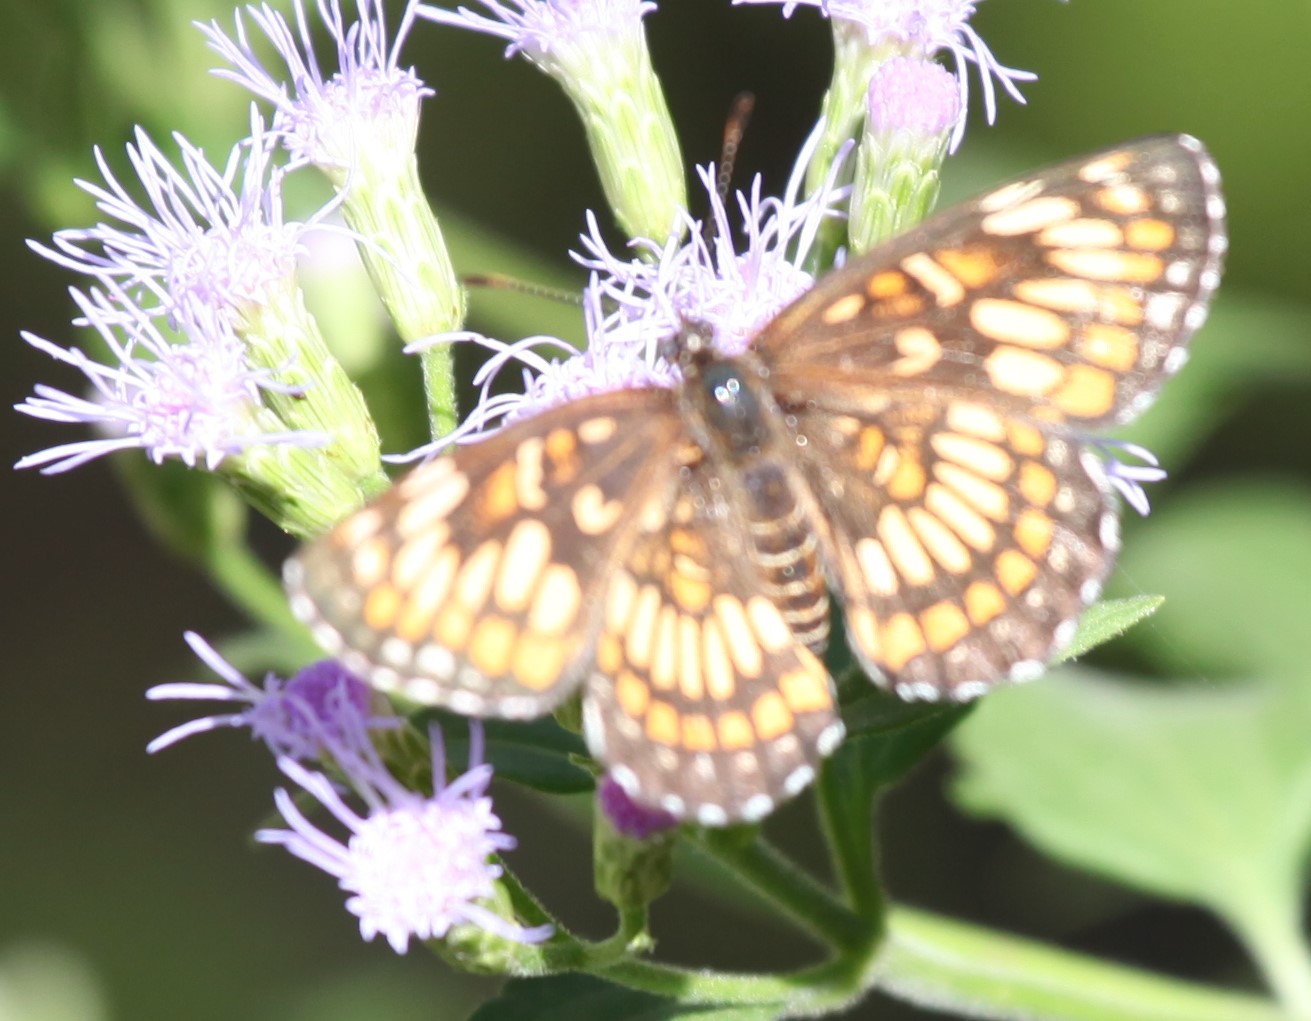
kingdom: Animalia
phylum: Arthropoda
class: Insecta
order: Lepidoptera
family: Nymphalidae
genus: Thessalia
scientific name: Thessalia theona
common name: Nymphalid moth
